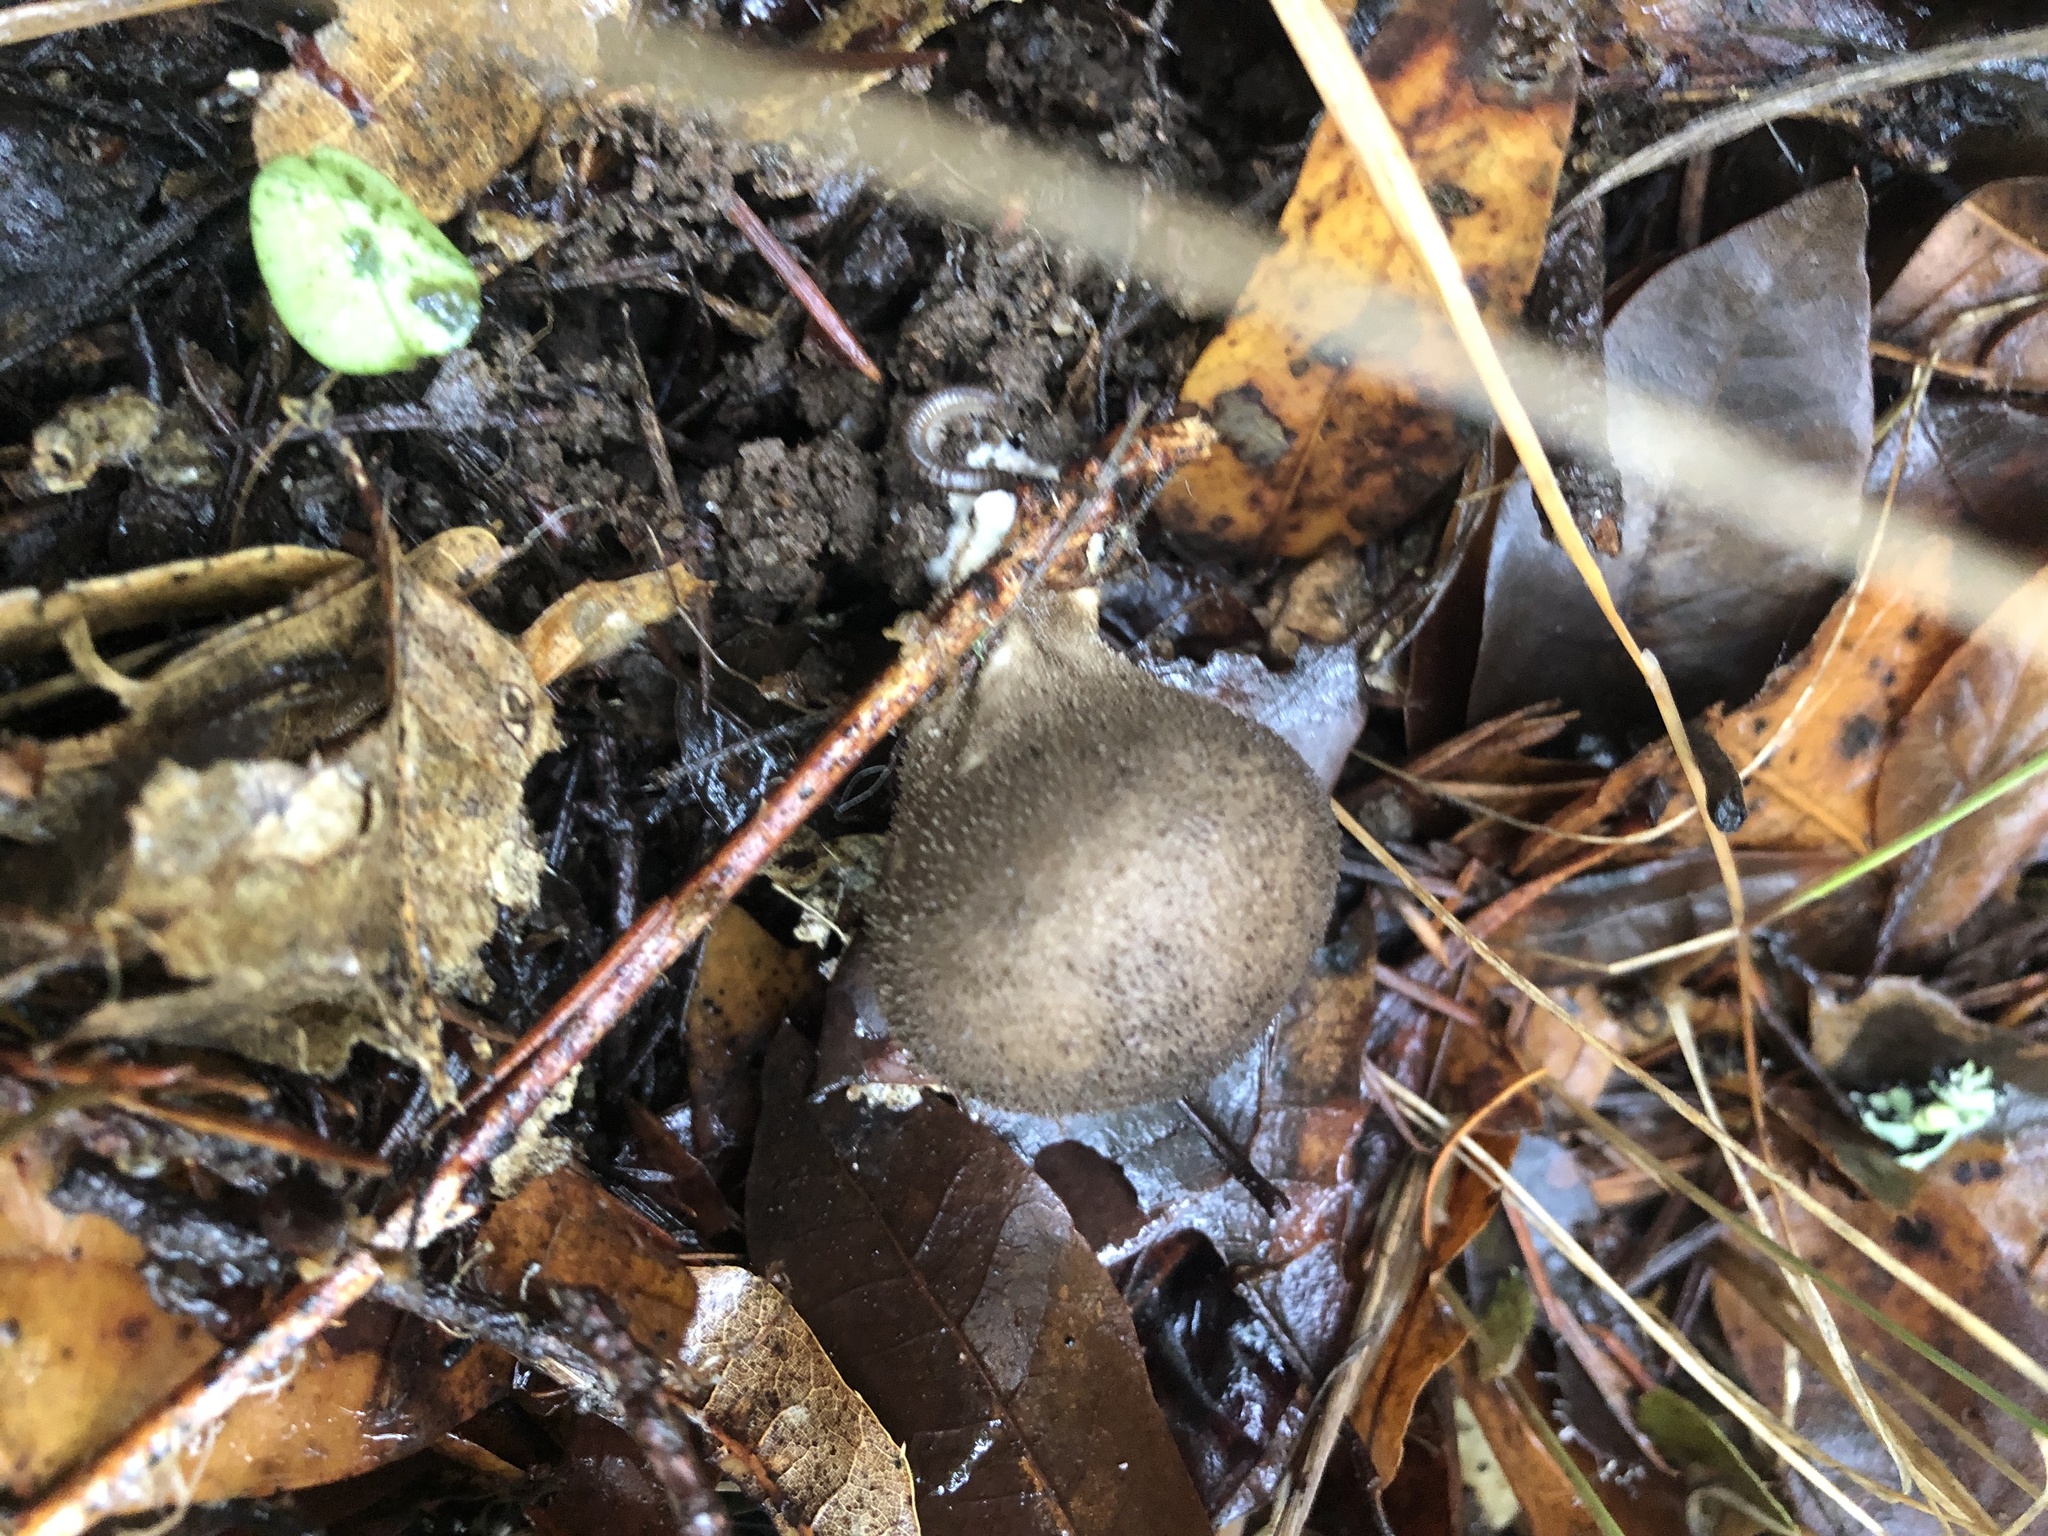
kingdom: Fungi
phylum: Basidiomycota
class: Agaricomycetes
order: Agaricales
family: Lycoperdaceae
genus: Lycoperdon
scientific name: Lycoperdon umbrinum
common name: Umber-brown puffball
